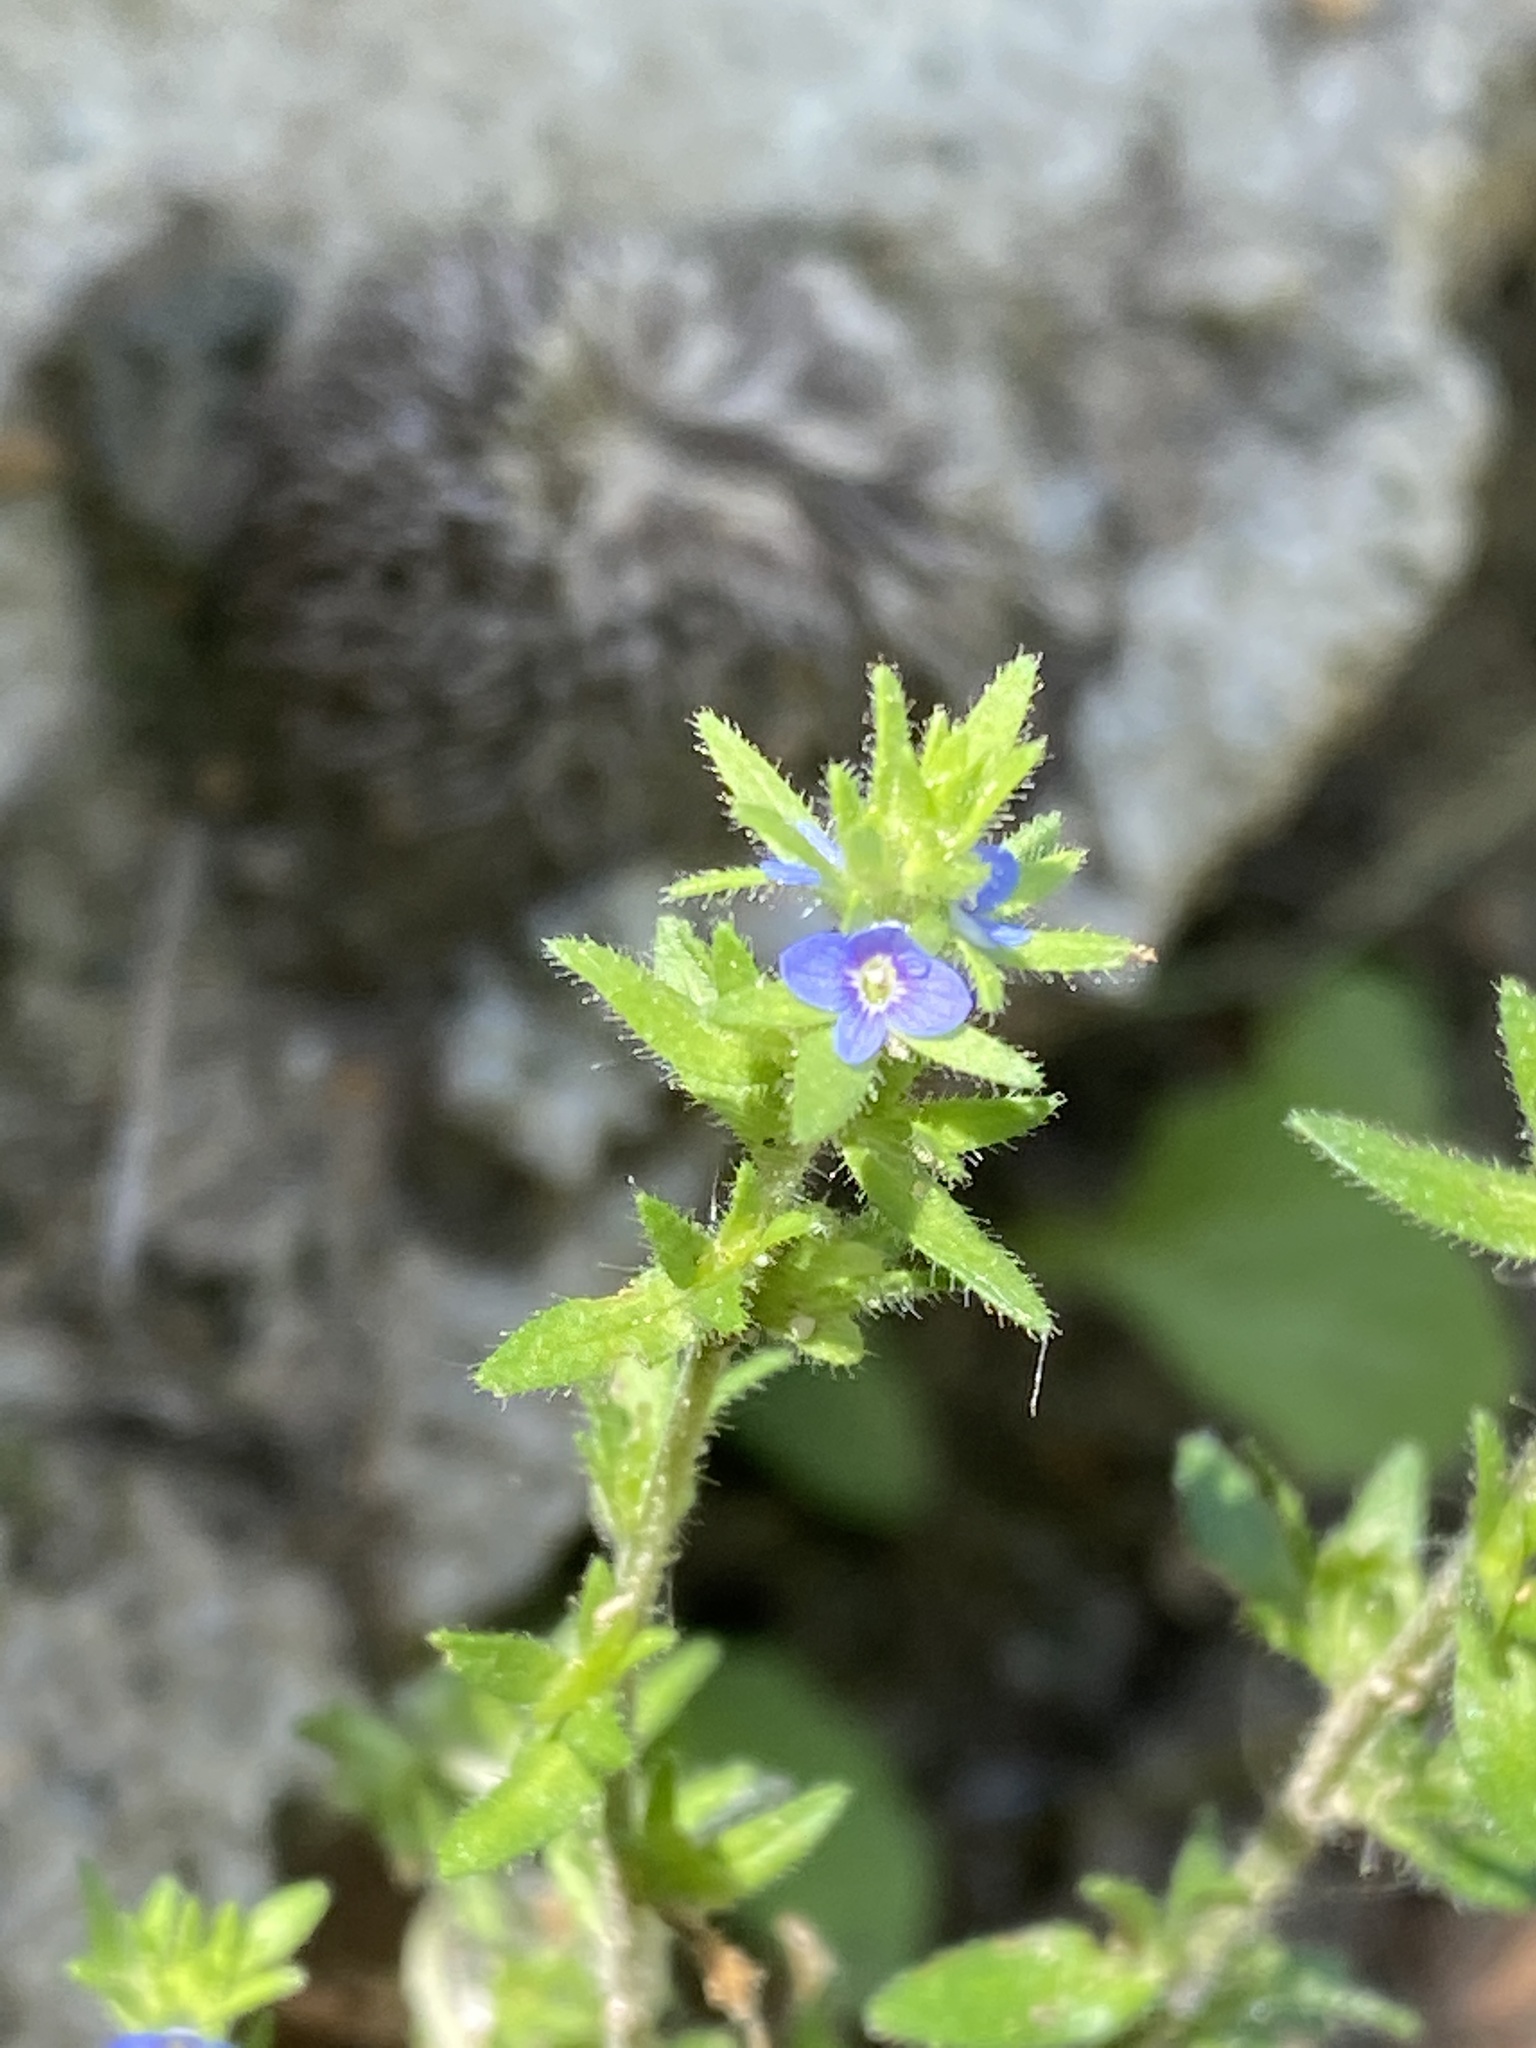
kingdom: Plantae
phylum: Tracheophyta
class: Magnoliopsida
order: Lamiales
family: Plantaginaceae
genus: Veronica
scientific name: Veronica arvensis
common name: Corn speedwell
